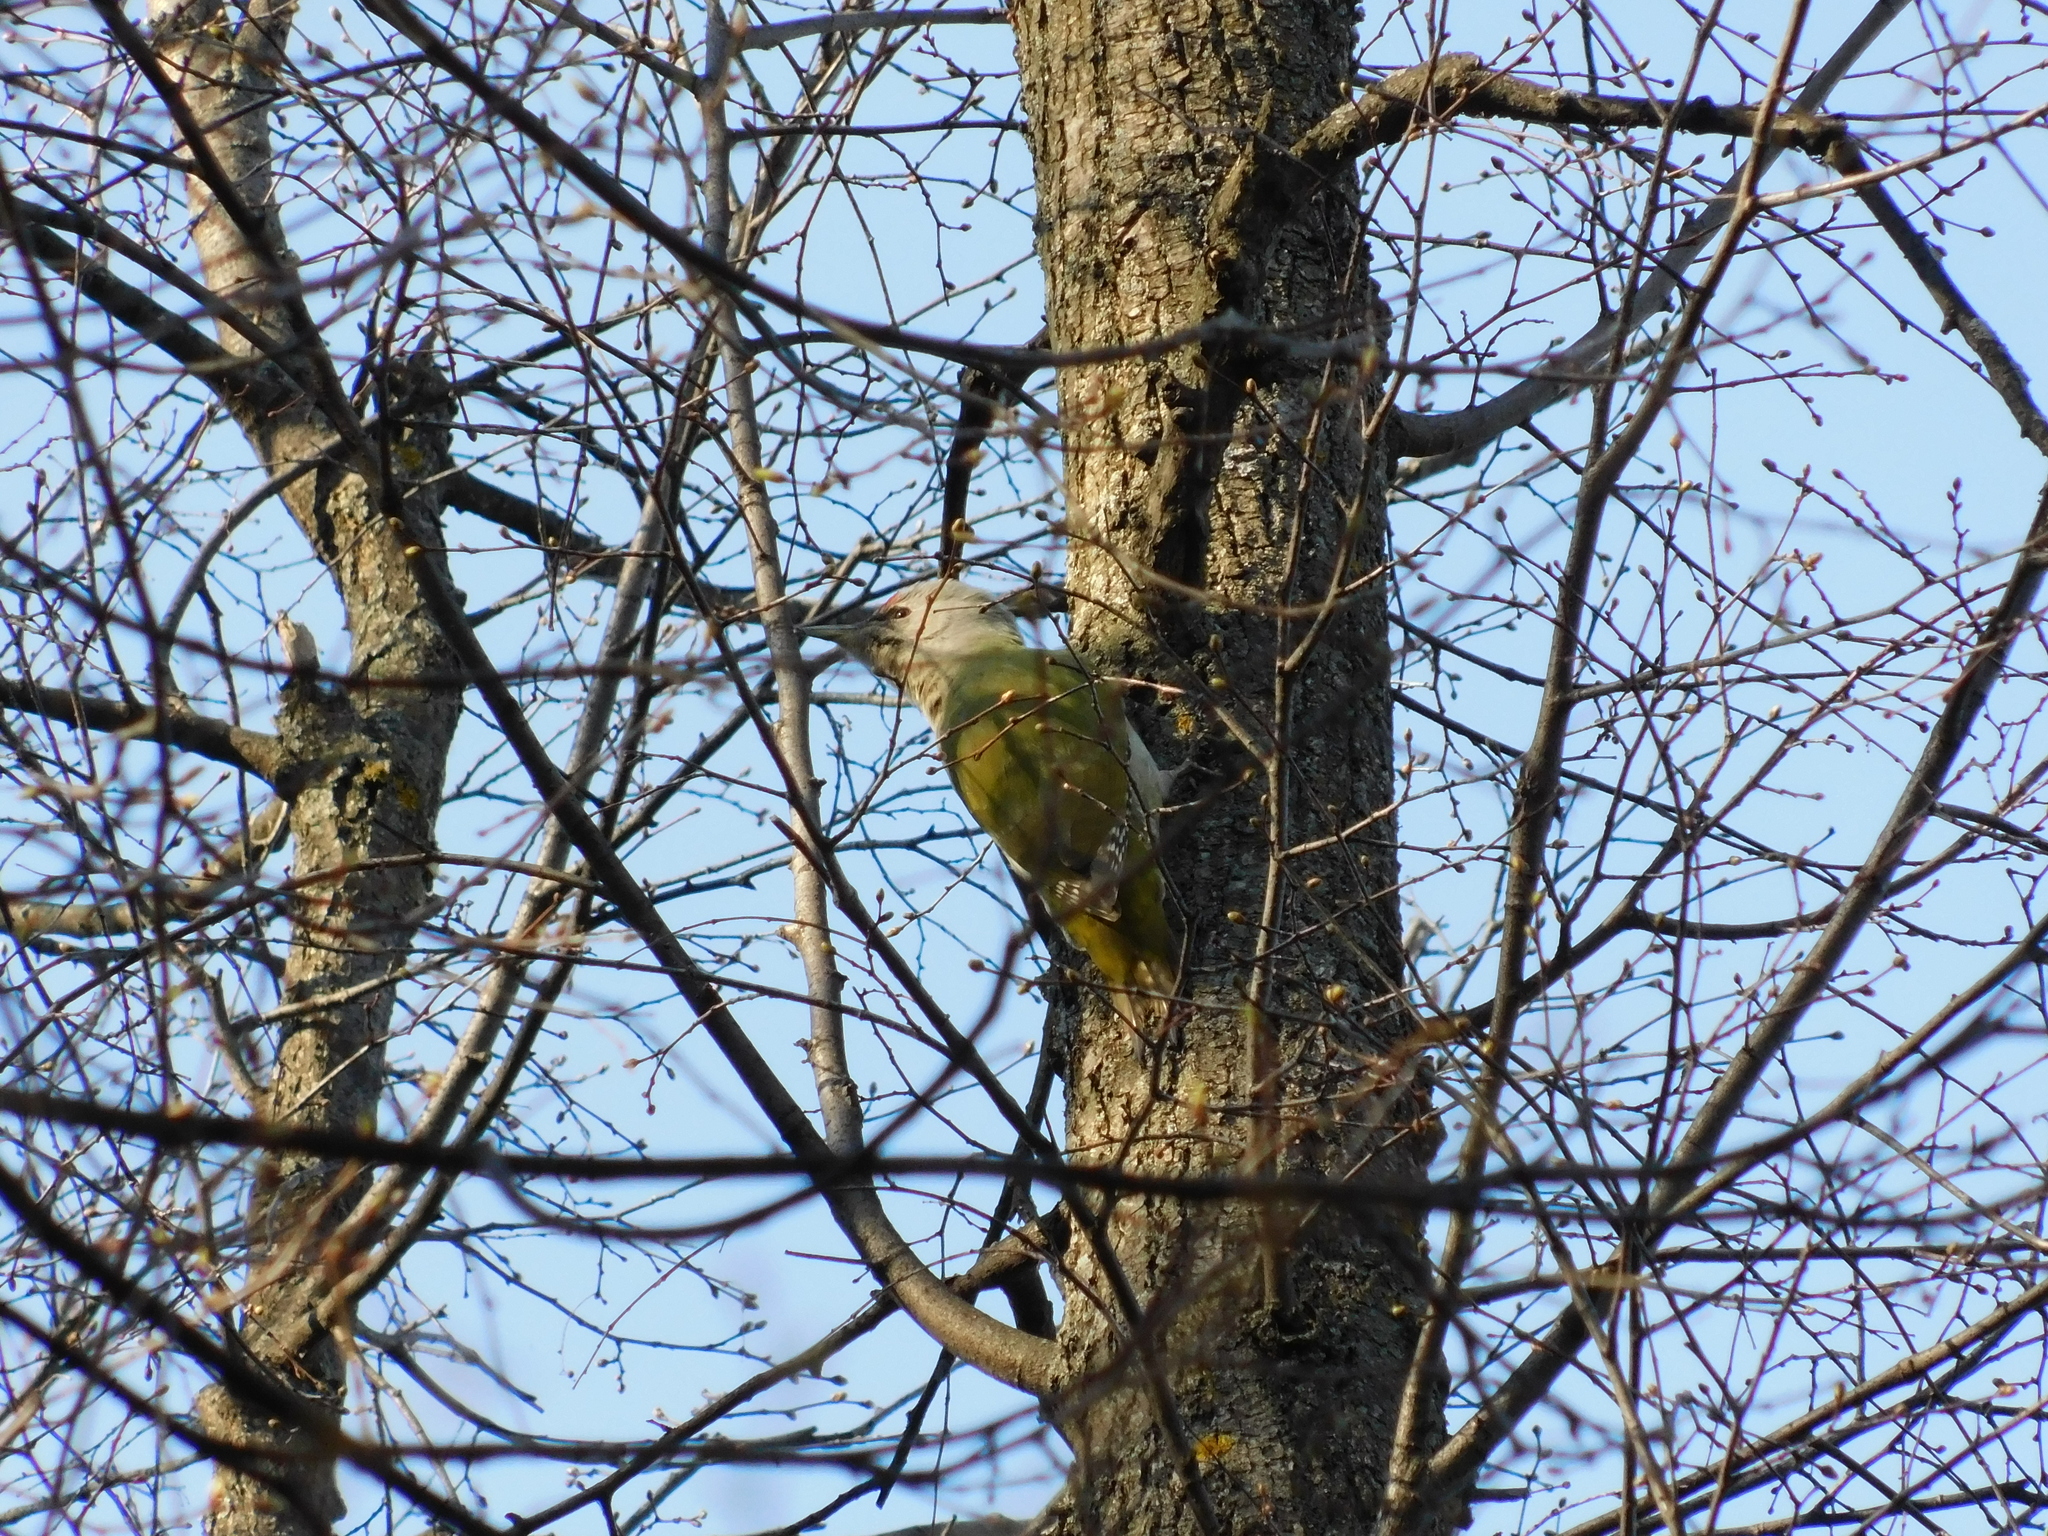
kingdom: Animalia
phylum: Chordata
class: Aves
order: Piciformes
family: Picidae
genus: Picus
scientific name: Picus canus
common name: Grey-headed woodpecker
